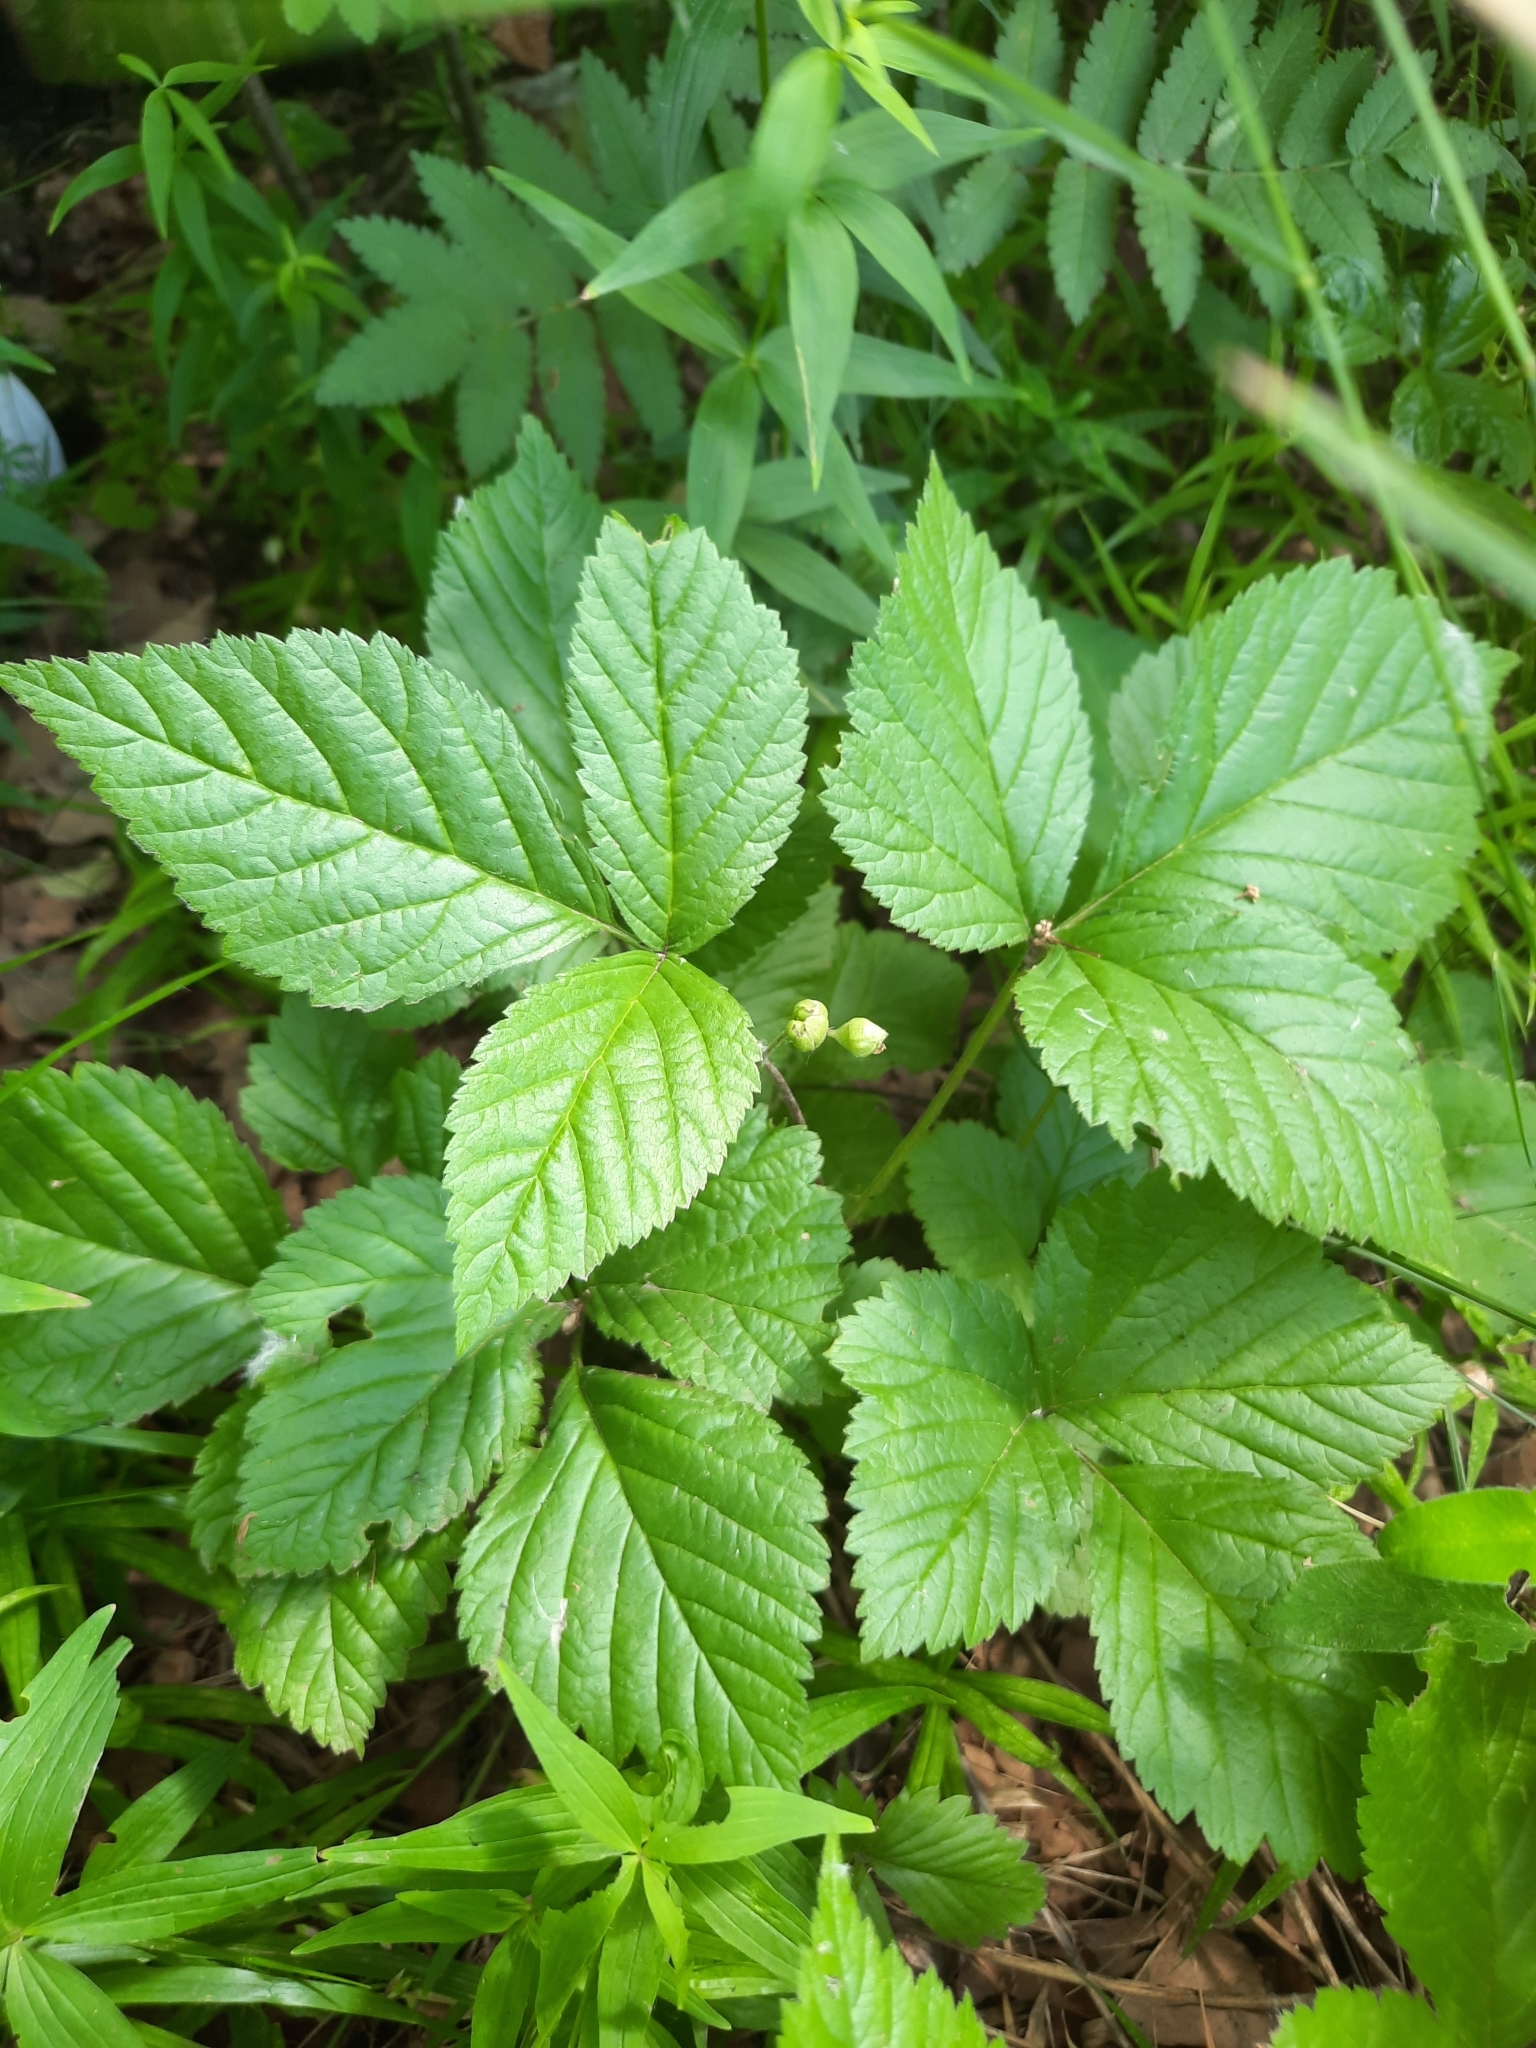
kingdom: Plantae
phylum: Tracheophyta
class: Magnoliopsida
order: Rosales
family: Rosaceae
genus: Rubus
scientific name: Rubus saxatilis
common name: Stone bramble
